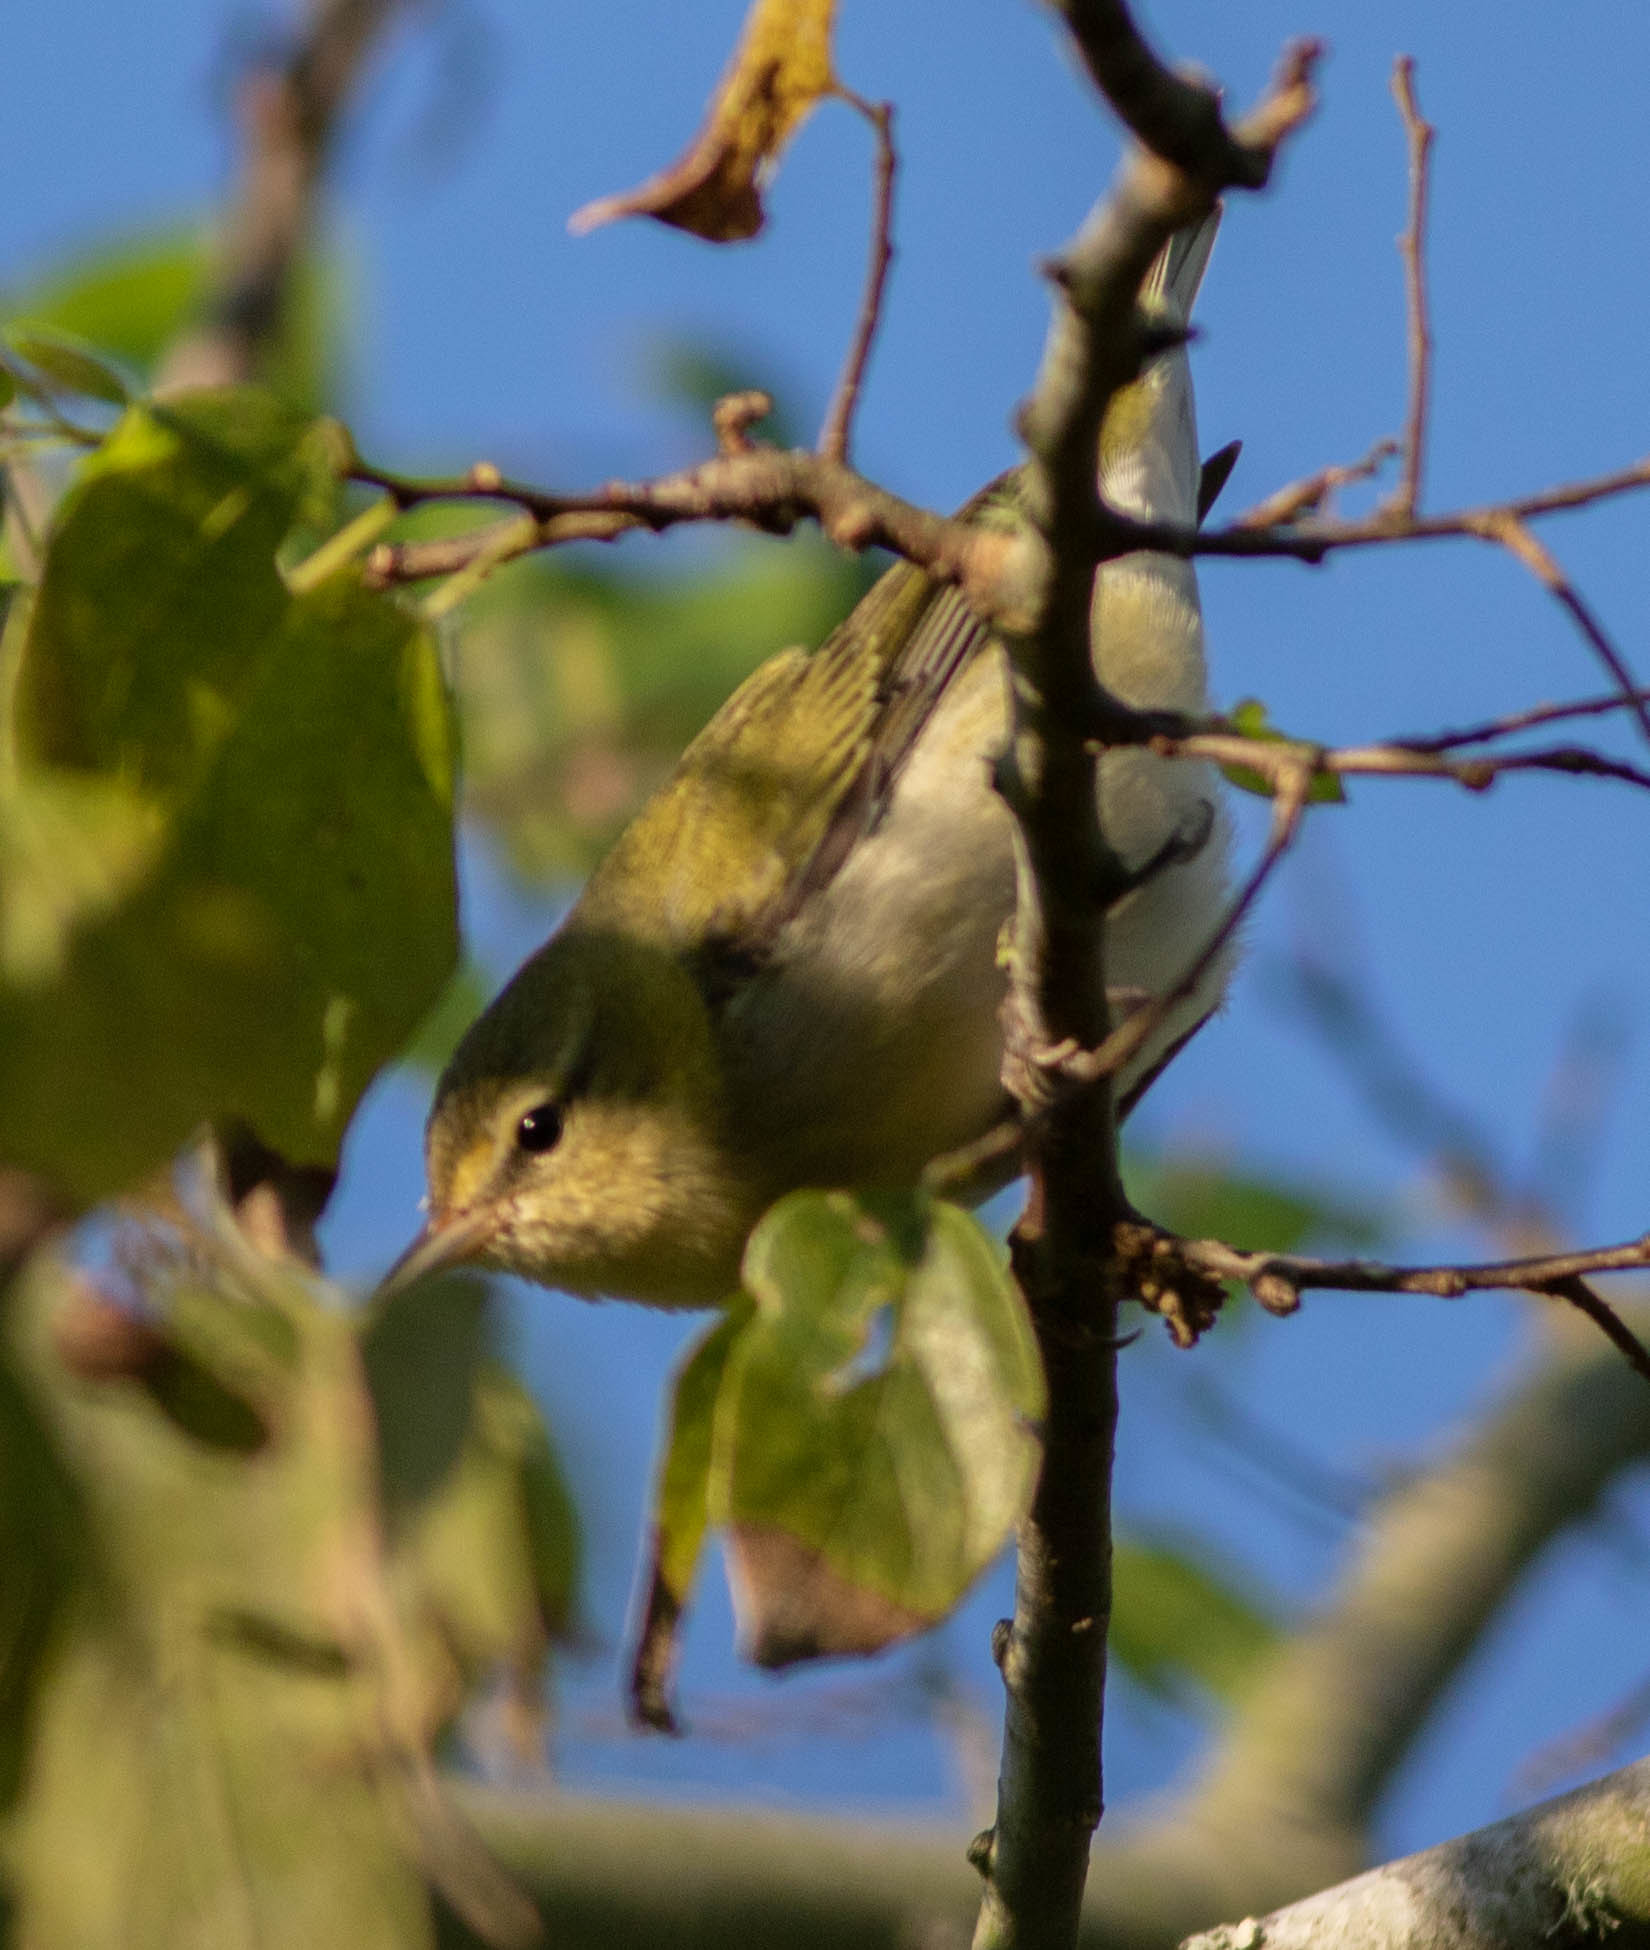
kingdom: Animalia
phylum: Chordata
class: Aves
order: Passeriformes
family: Parulidae
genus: Leiothlypis
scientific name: Leiothlypis peregrina
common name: Tennessee warbler
